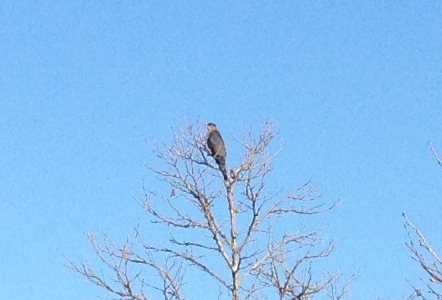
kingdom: Animalia
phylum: Chordata
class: Aves
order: Accipitriformes
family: Accipitridae
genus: Accipiter
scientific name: Accipiter cooperii
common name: Cooper's hawk
